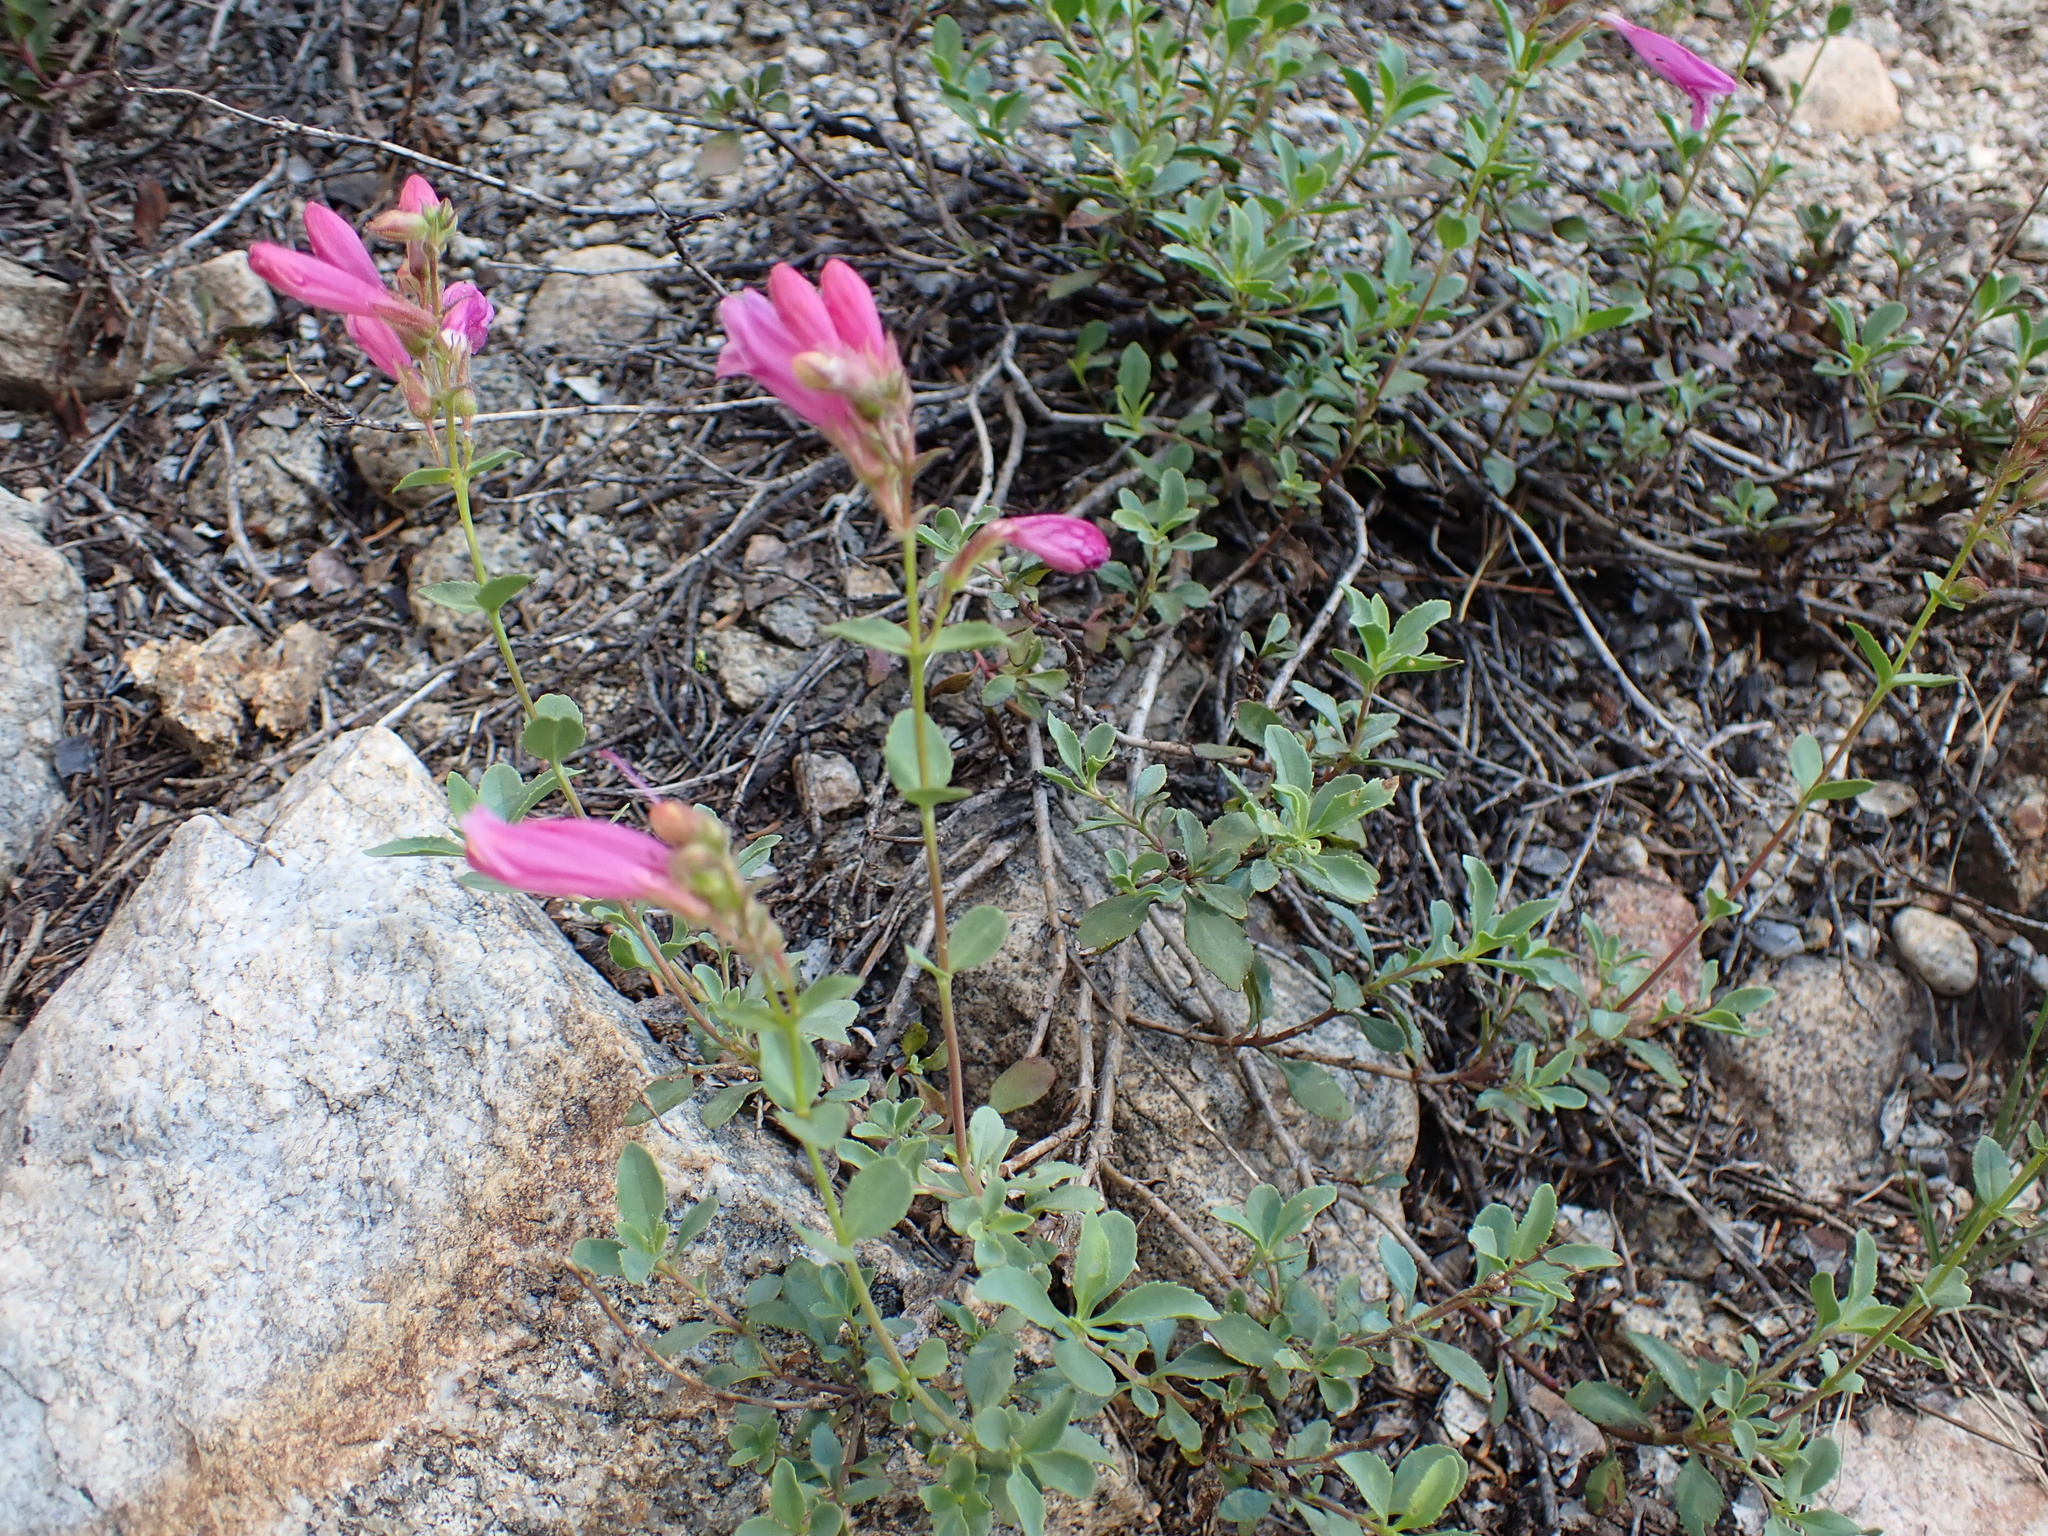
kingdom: Plantae
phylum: Tracheophyta
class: Magnoliopsida
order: Lamiales
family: Plantaginaceae
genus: Penstemon
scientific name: Penstemon newberryi
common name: Mountain-pride
